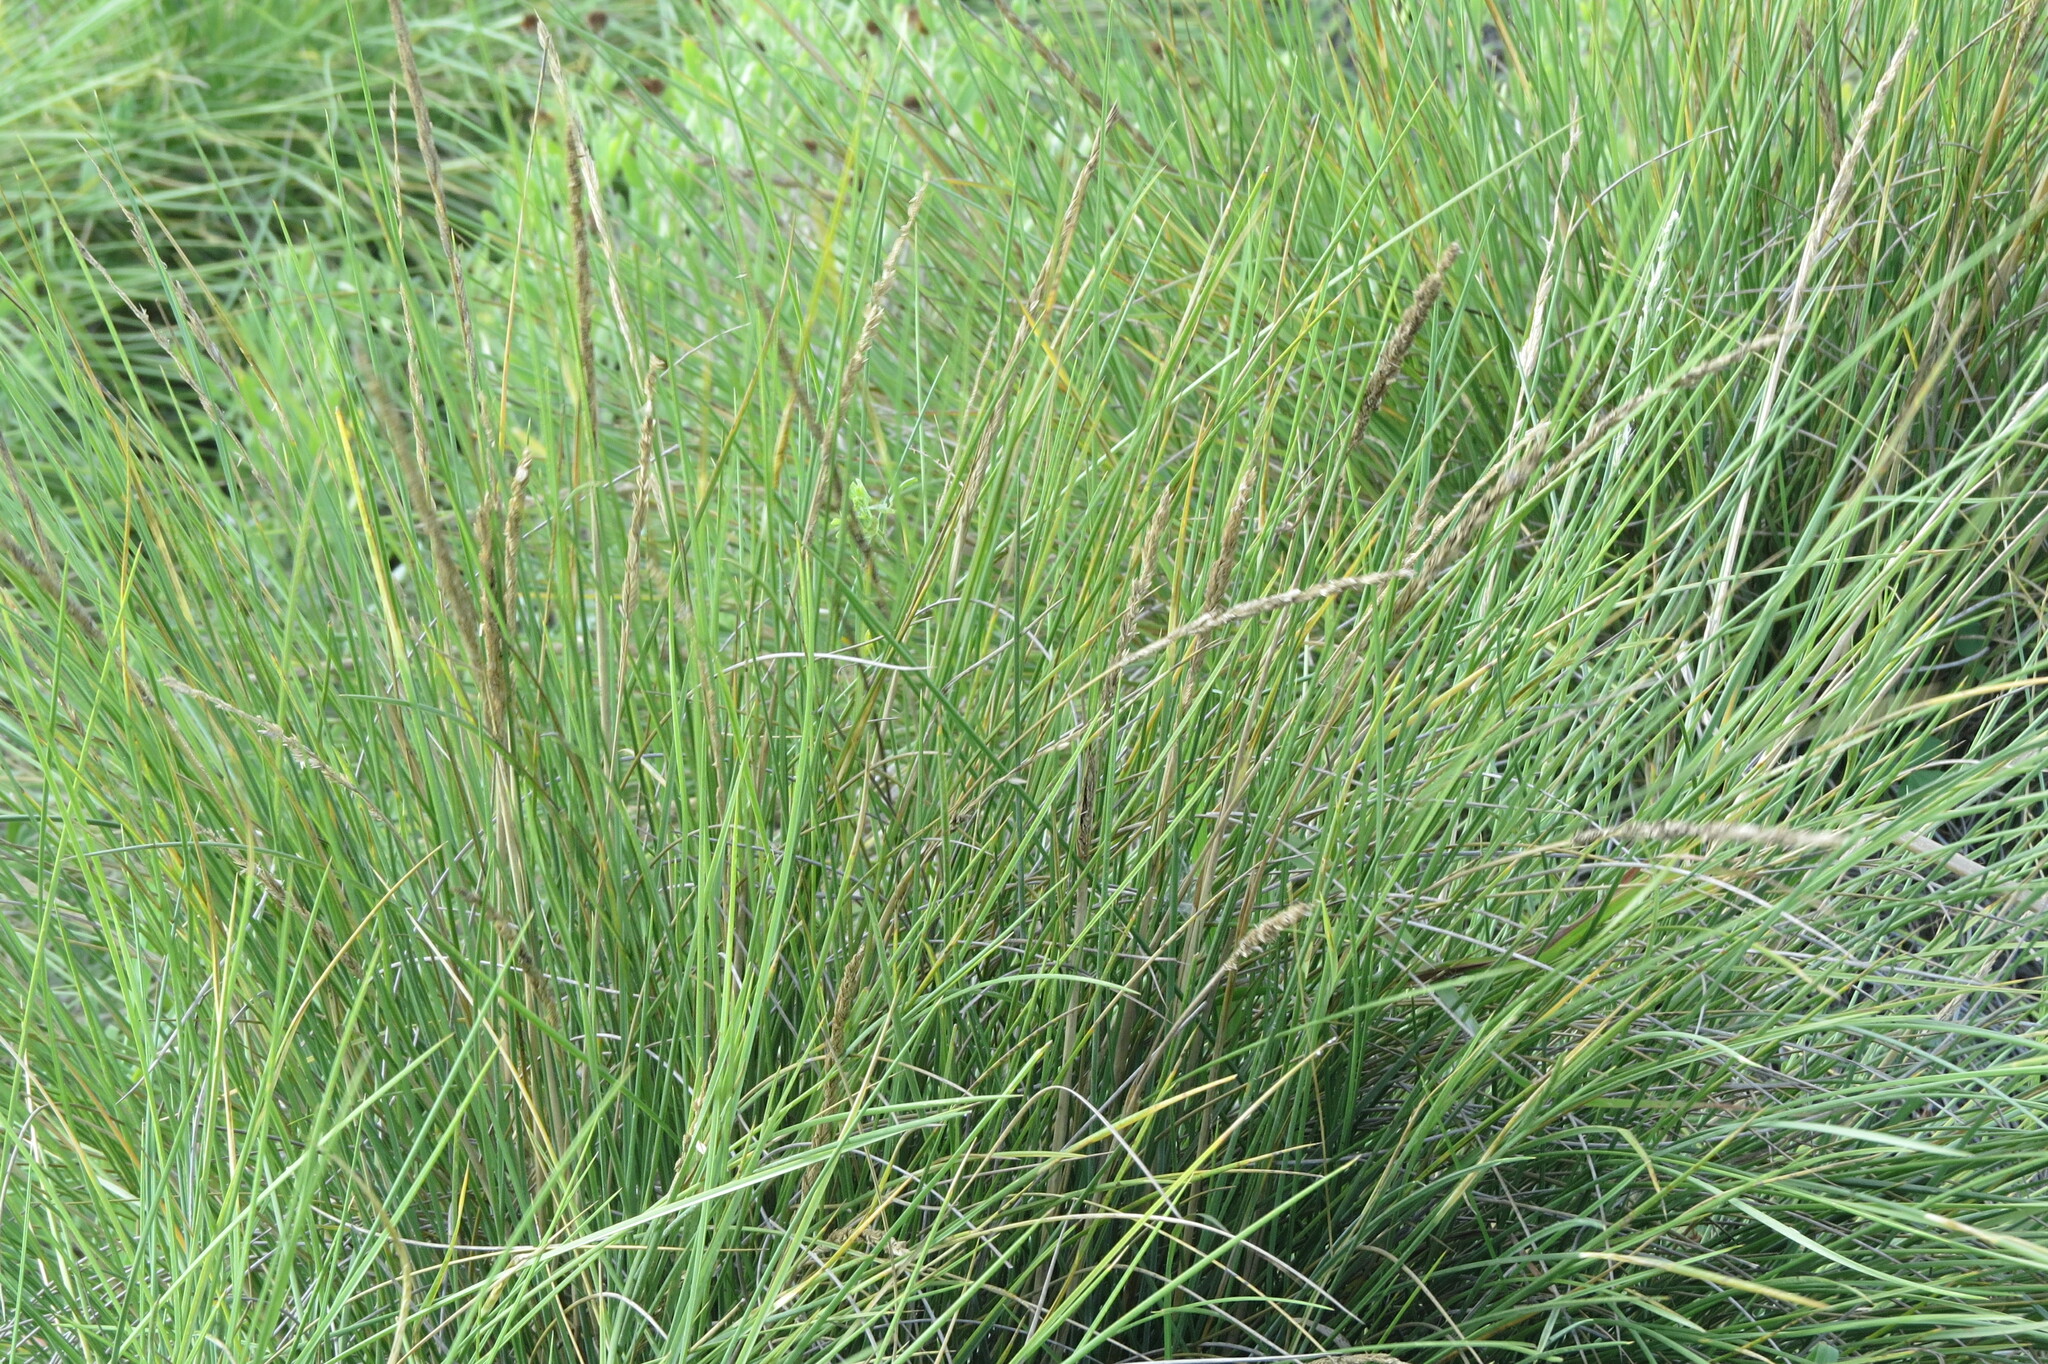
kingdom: Plantae
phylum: Tracheophyta
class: Liliopsida
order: Poales
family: Poaceae
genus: Sporobolus
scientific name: Sporobolus spartinae
